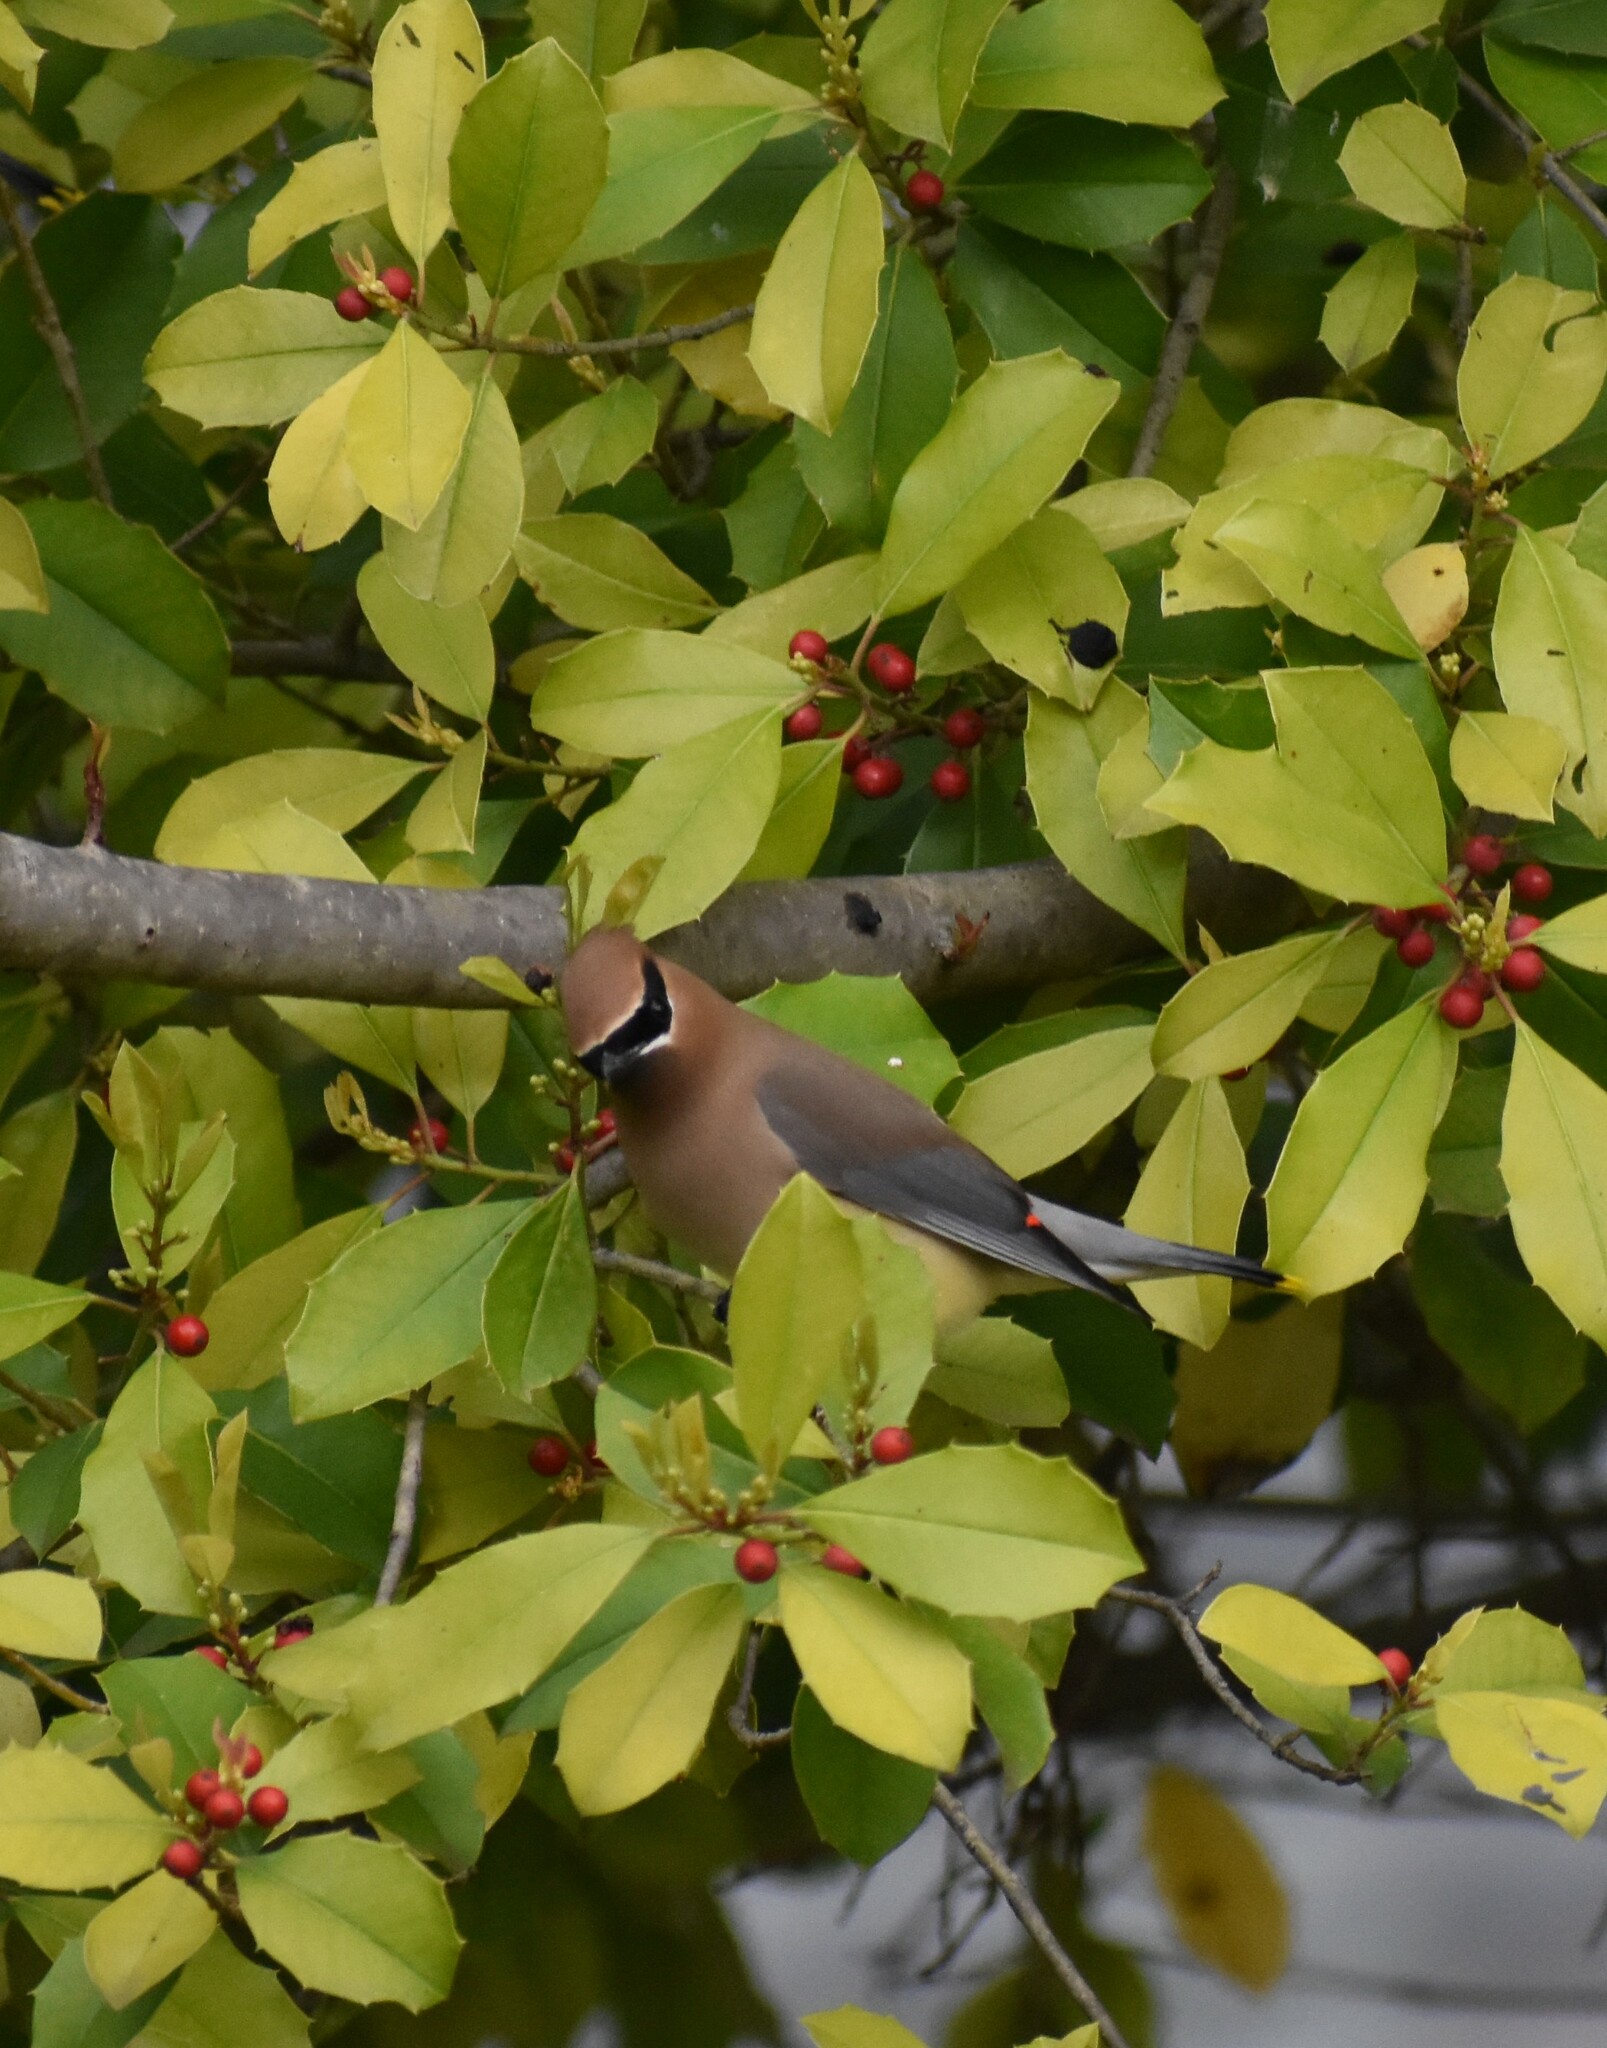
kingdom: Animalia
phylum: Chordata
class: Aves
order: Passeriformes
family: Bombycillidae
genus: Bombycilla
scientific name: Bombycilla cedrorum
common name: Cedar waxwing
